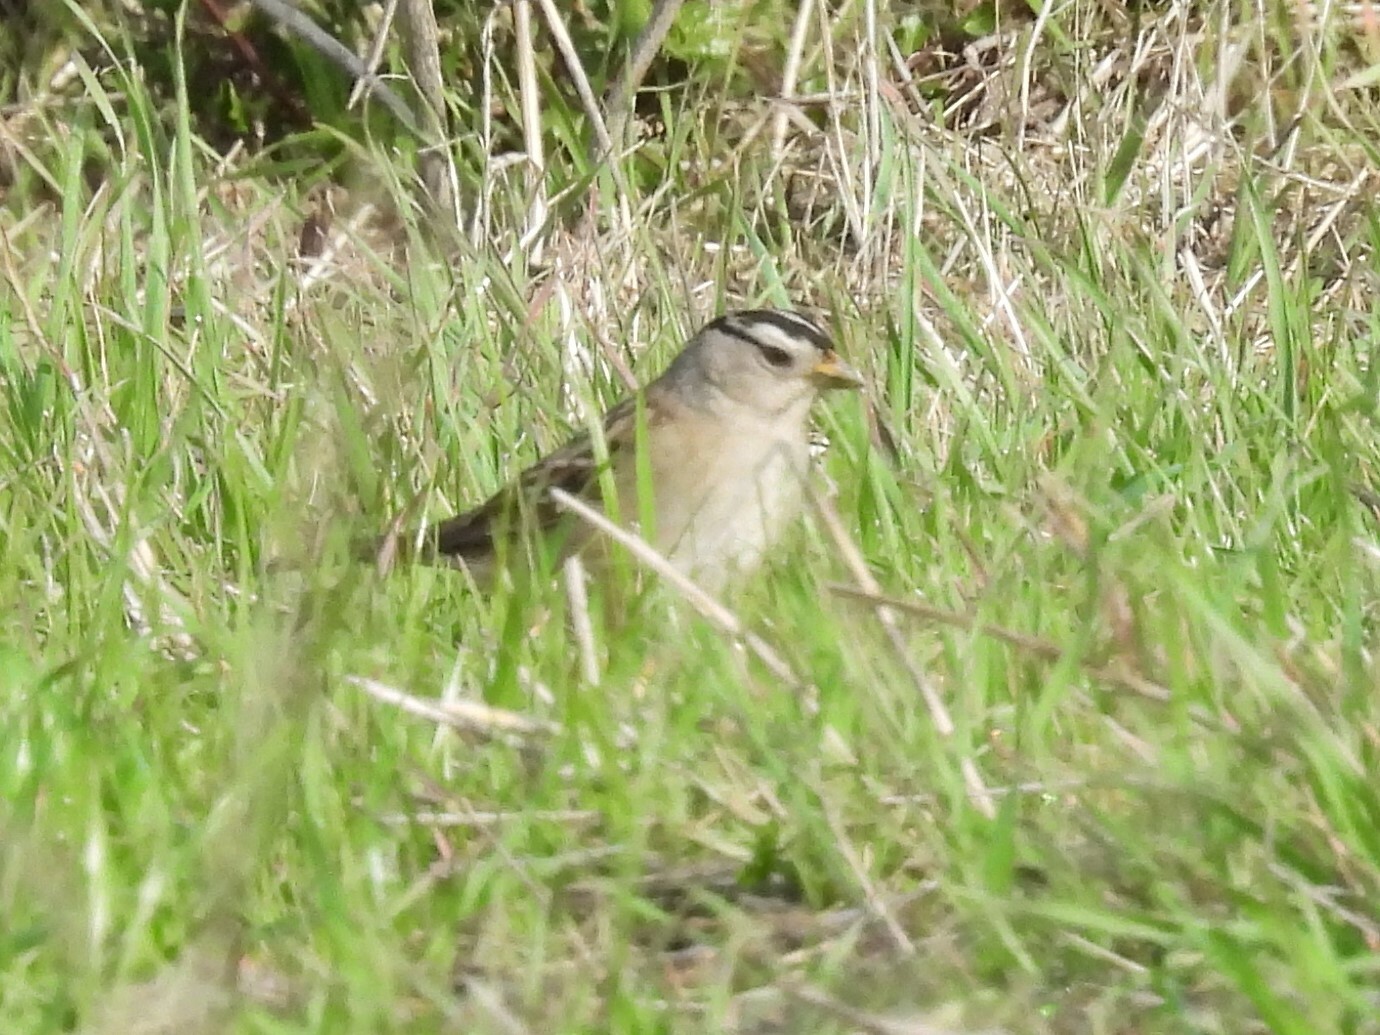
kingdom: Animalia
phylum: Chordata
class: Aves
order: Passeriformes
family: Passerellidae
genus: Zonotrichia
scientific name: Zonotrichia leucophrys
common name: White-crowned sparrow
